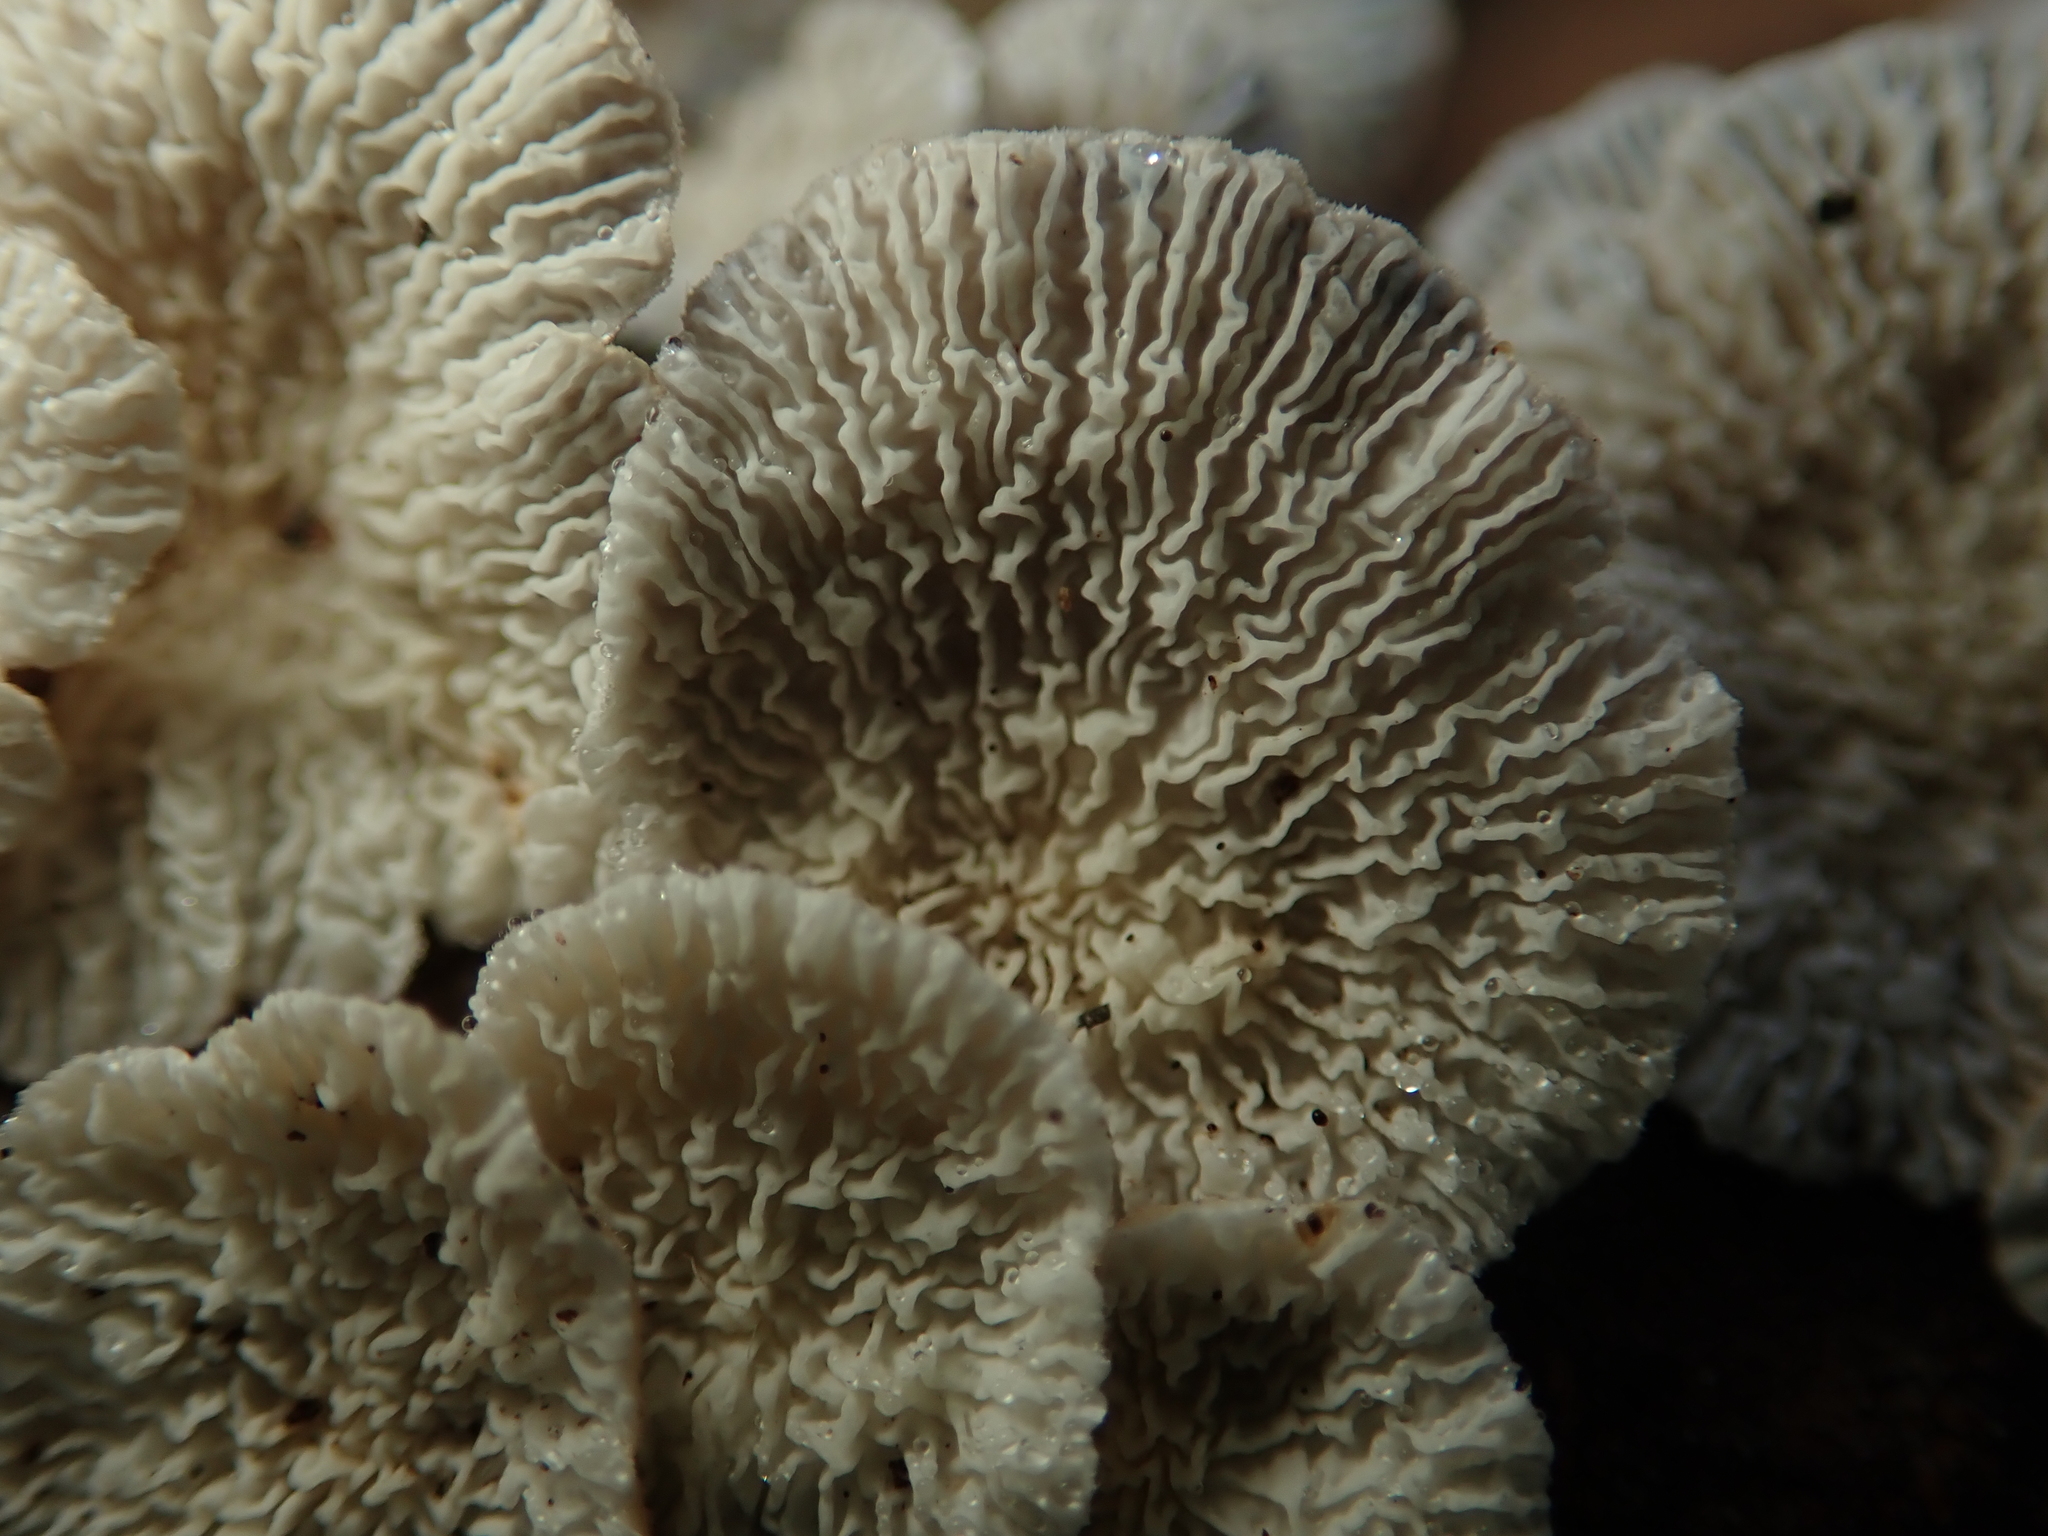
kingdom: Fungi
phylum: Basidiomycota
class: Agaricomycetes
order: Amylocorticiales
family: Amylocorticiaceae
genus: Plicaturopsis
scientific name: Plicaturopsis crispa
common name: Crimped gill
